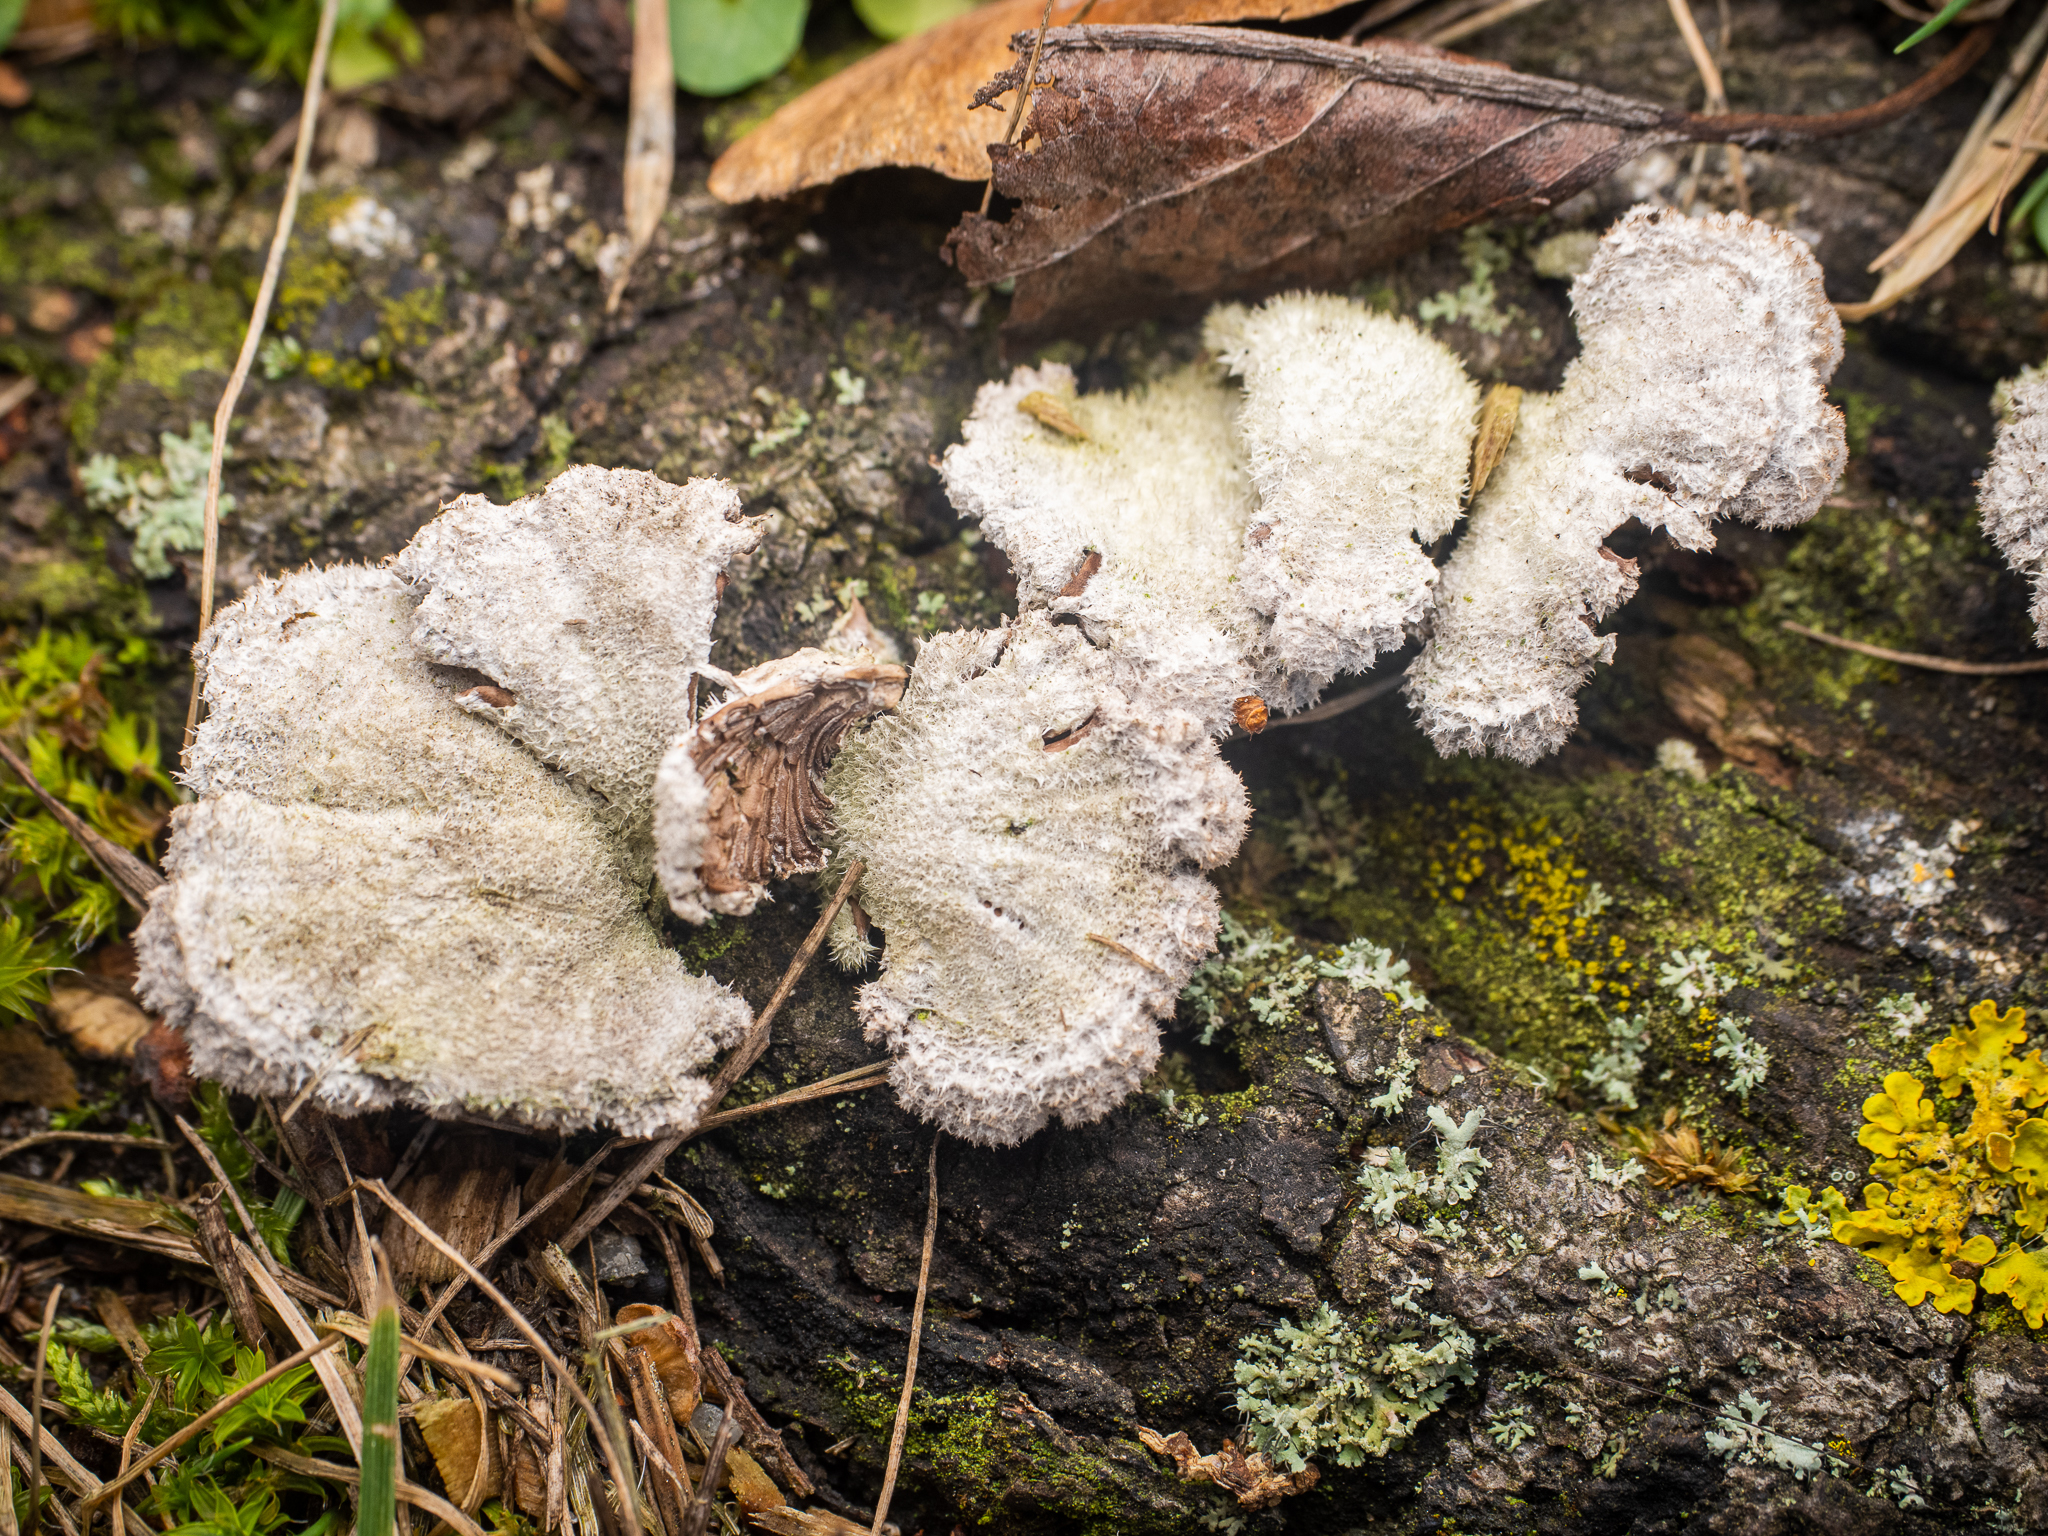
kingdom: Fungi
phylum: Basidiomycota
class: Agaricomycetes
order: Agaricales
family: Schizophyllaceae
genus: Schizophyllum
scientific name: Schizophyllum commune
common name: Common porecrust
